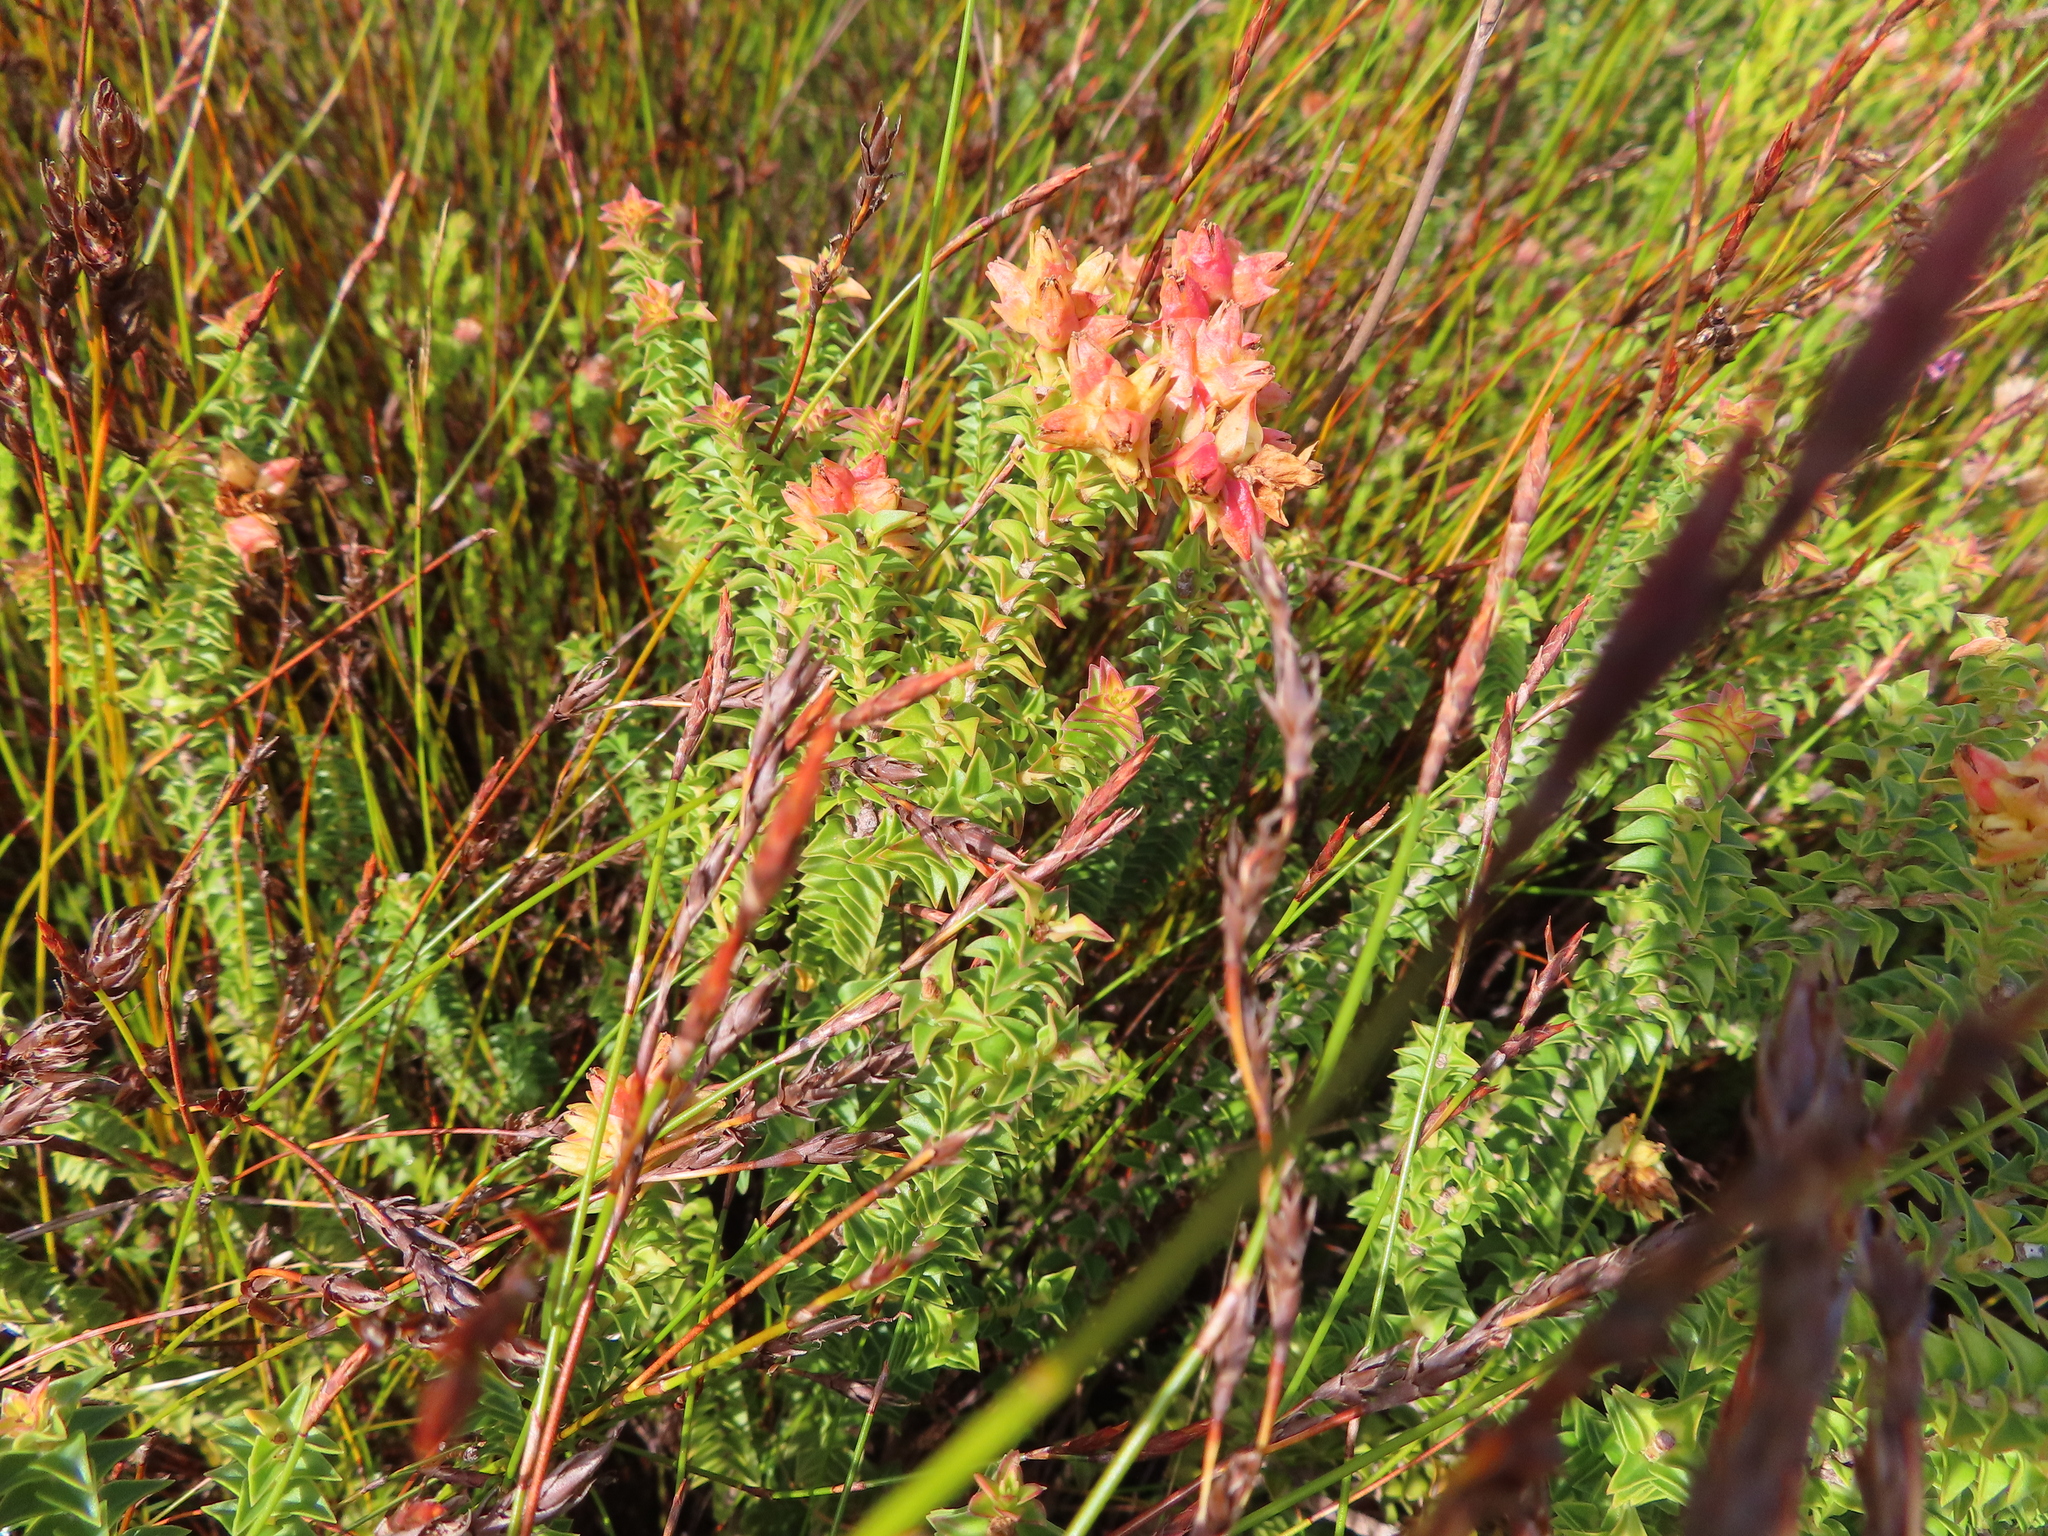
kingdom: Plantae
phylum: Tracheophyta
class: Magnoliopsida
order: Myrtales
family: Penaeaceae
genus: Penaea
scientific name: Penaea mucronata
